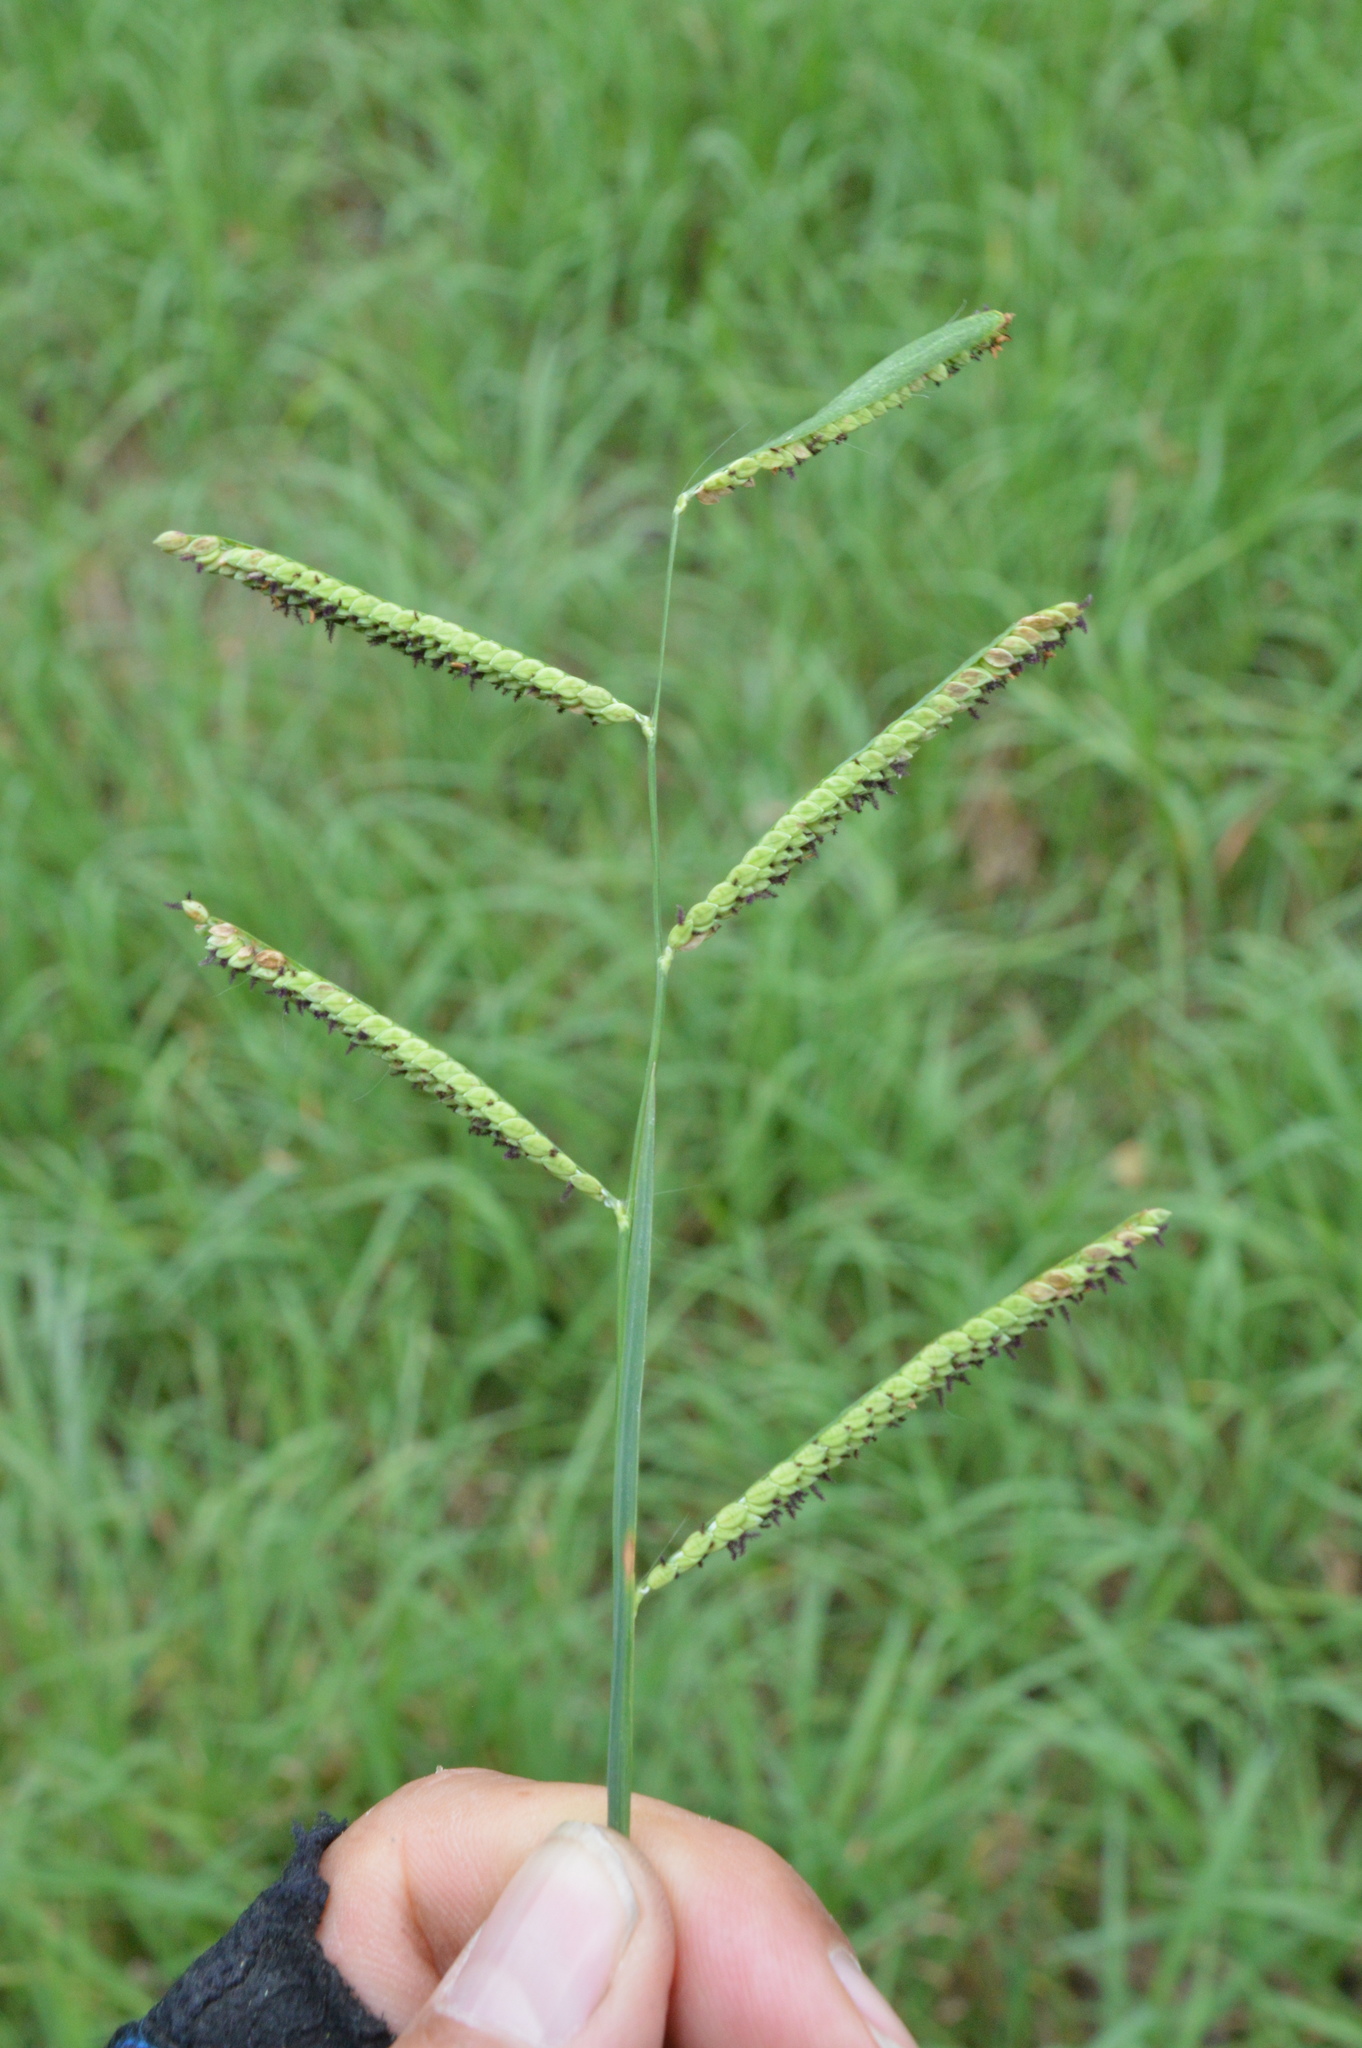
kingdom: Plantae
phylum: Tracheophyta
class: Liliopsida
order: Poales
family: Poaceae
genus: Paspalum
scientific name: Paspalum denticulatum
